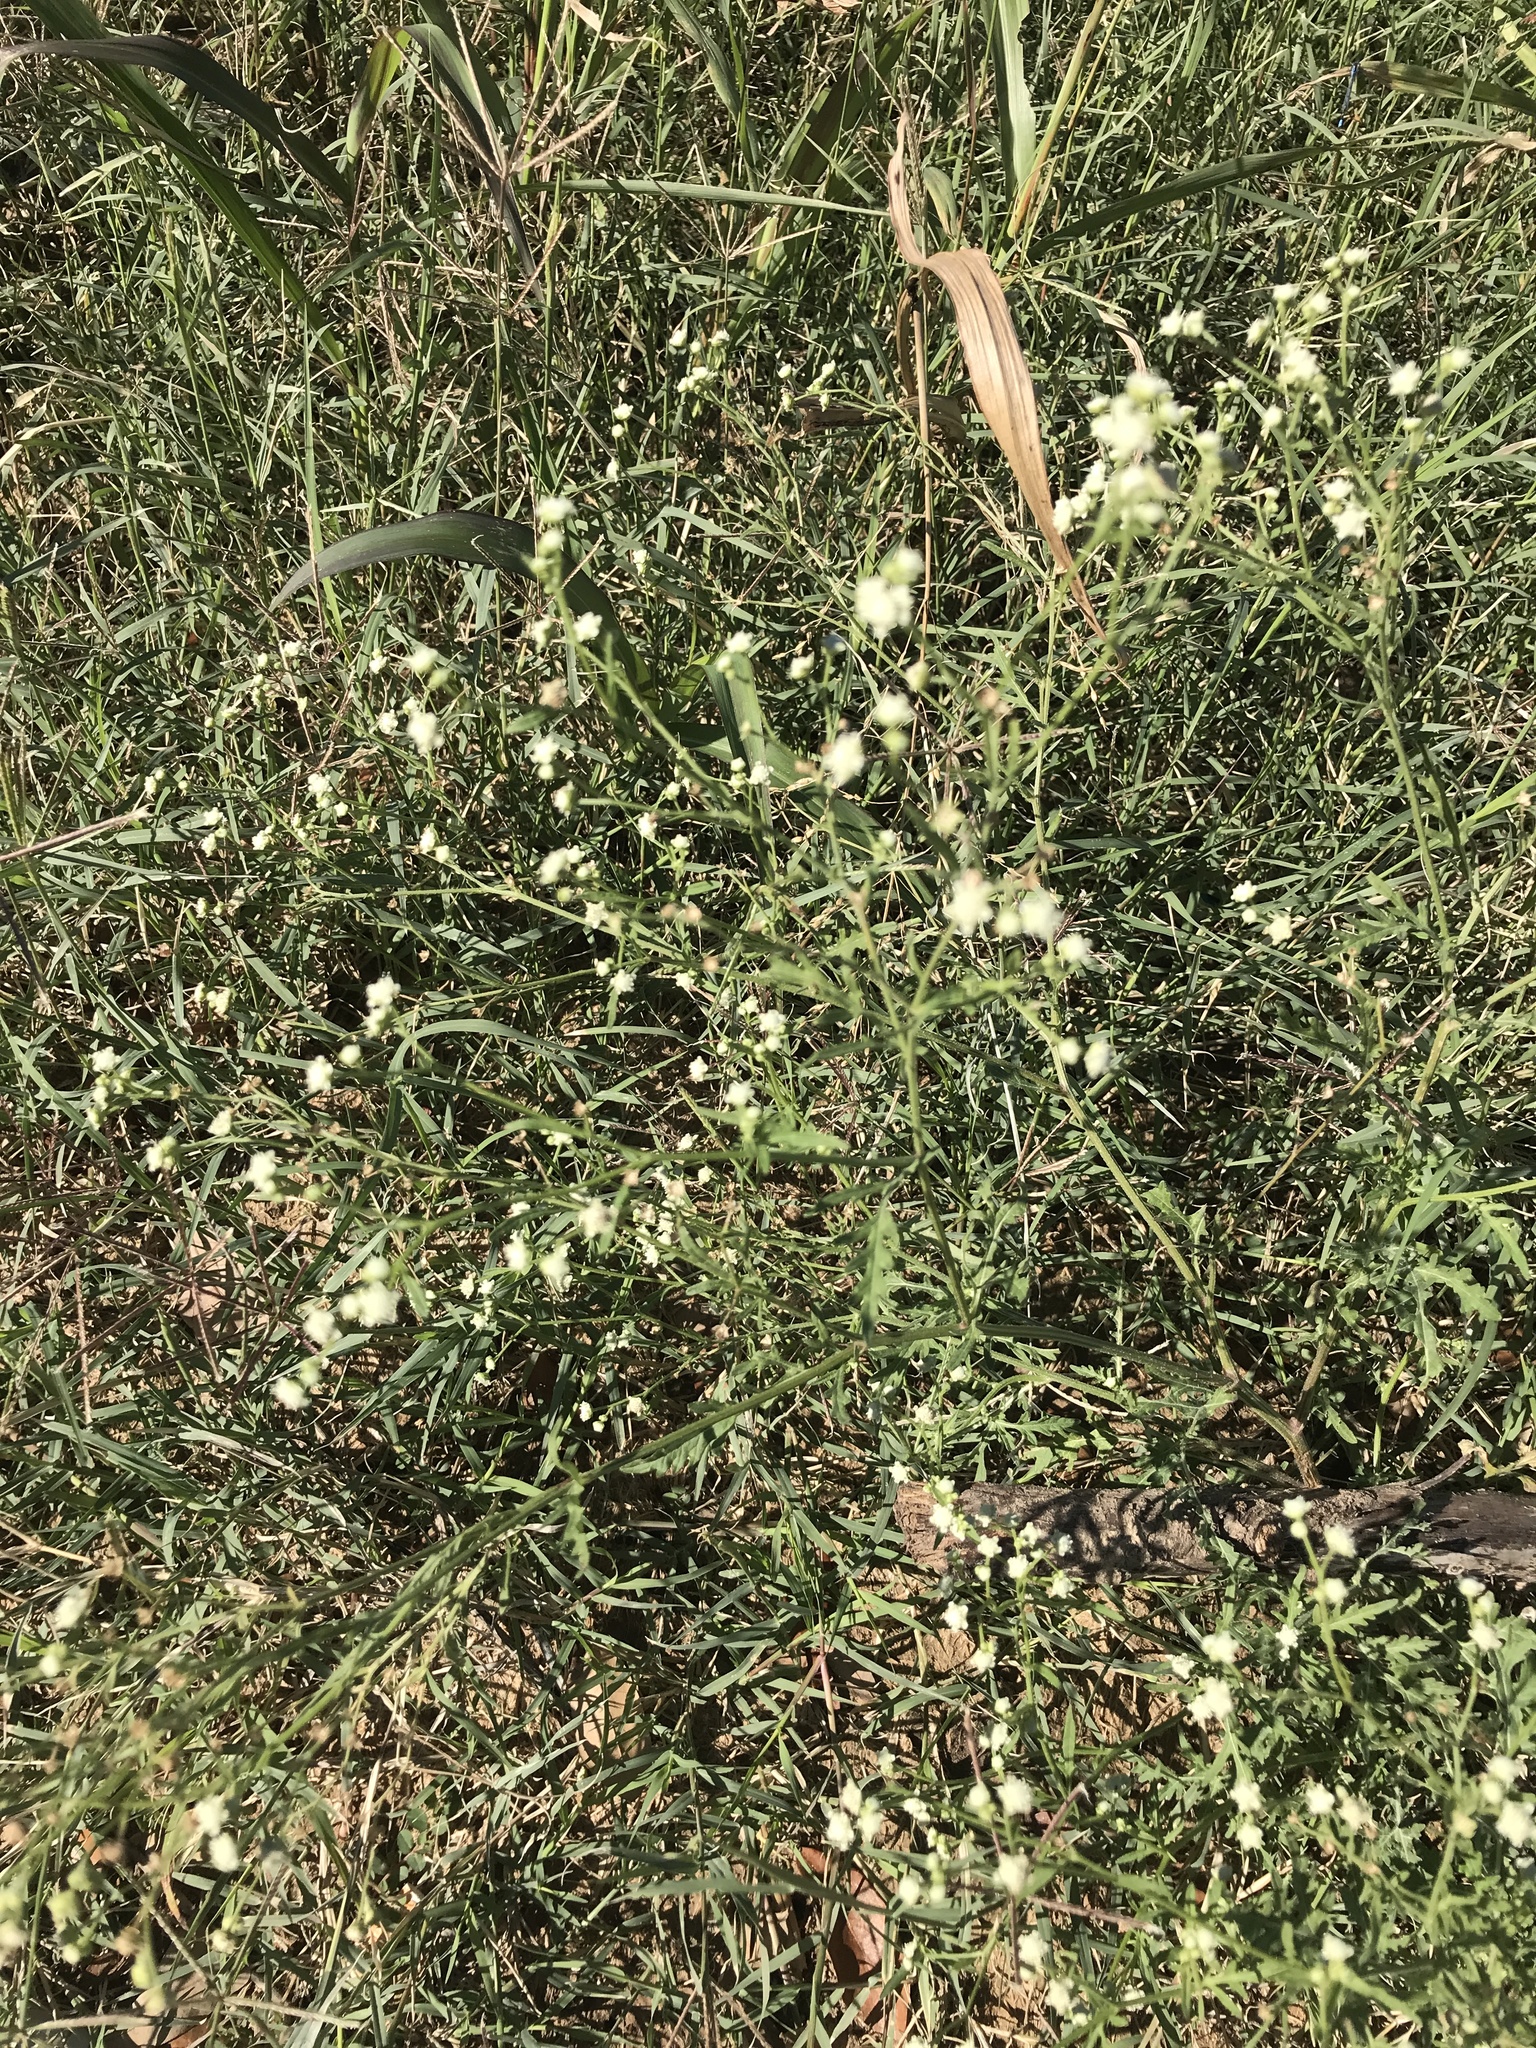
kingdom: Plantae
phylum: Tracheophyta
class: Magnoliopsida
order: Asterales
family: Asteraceae
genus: Parthenium
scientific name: Parthenium hysterophorus
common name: Santa maria feverfew
